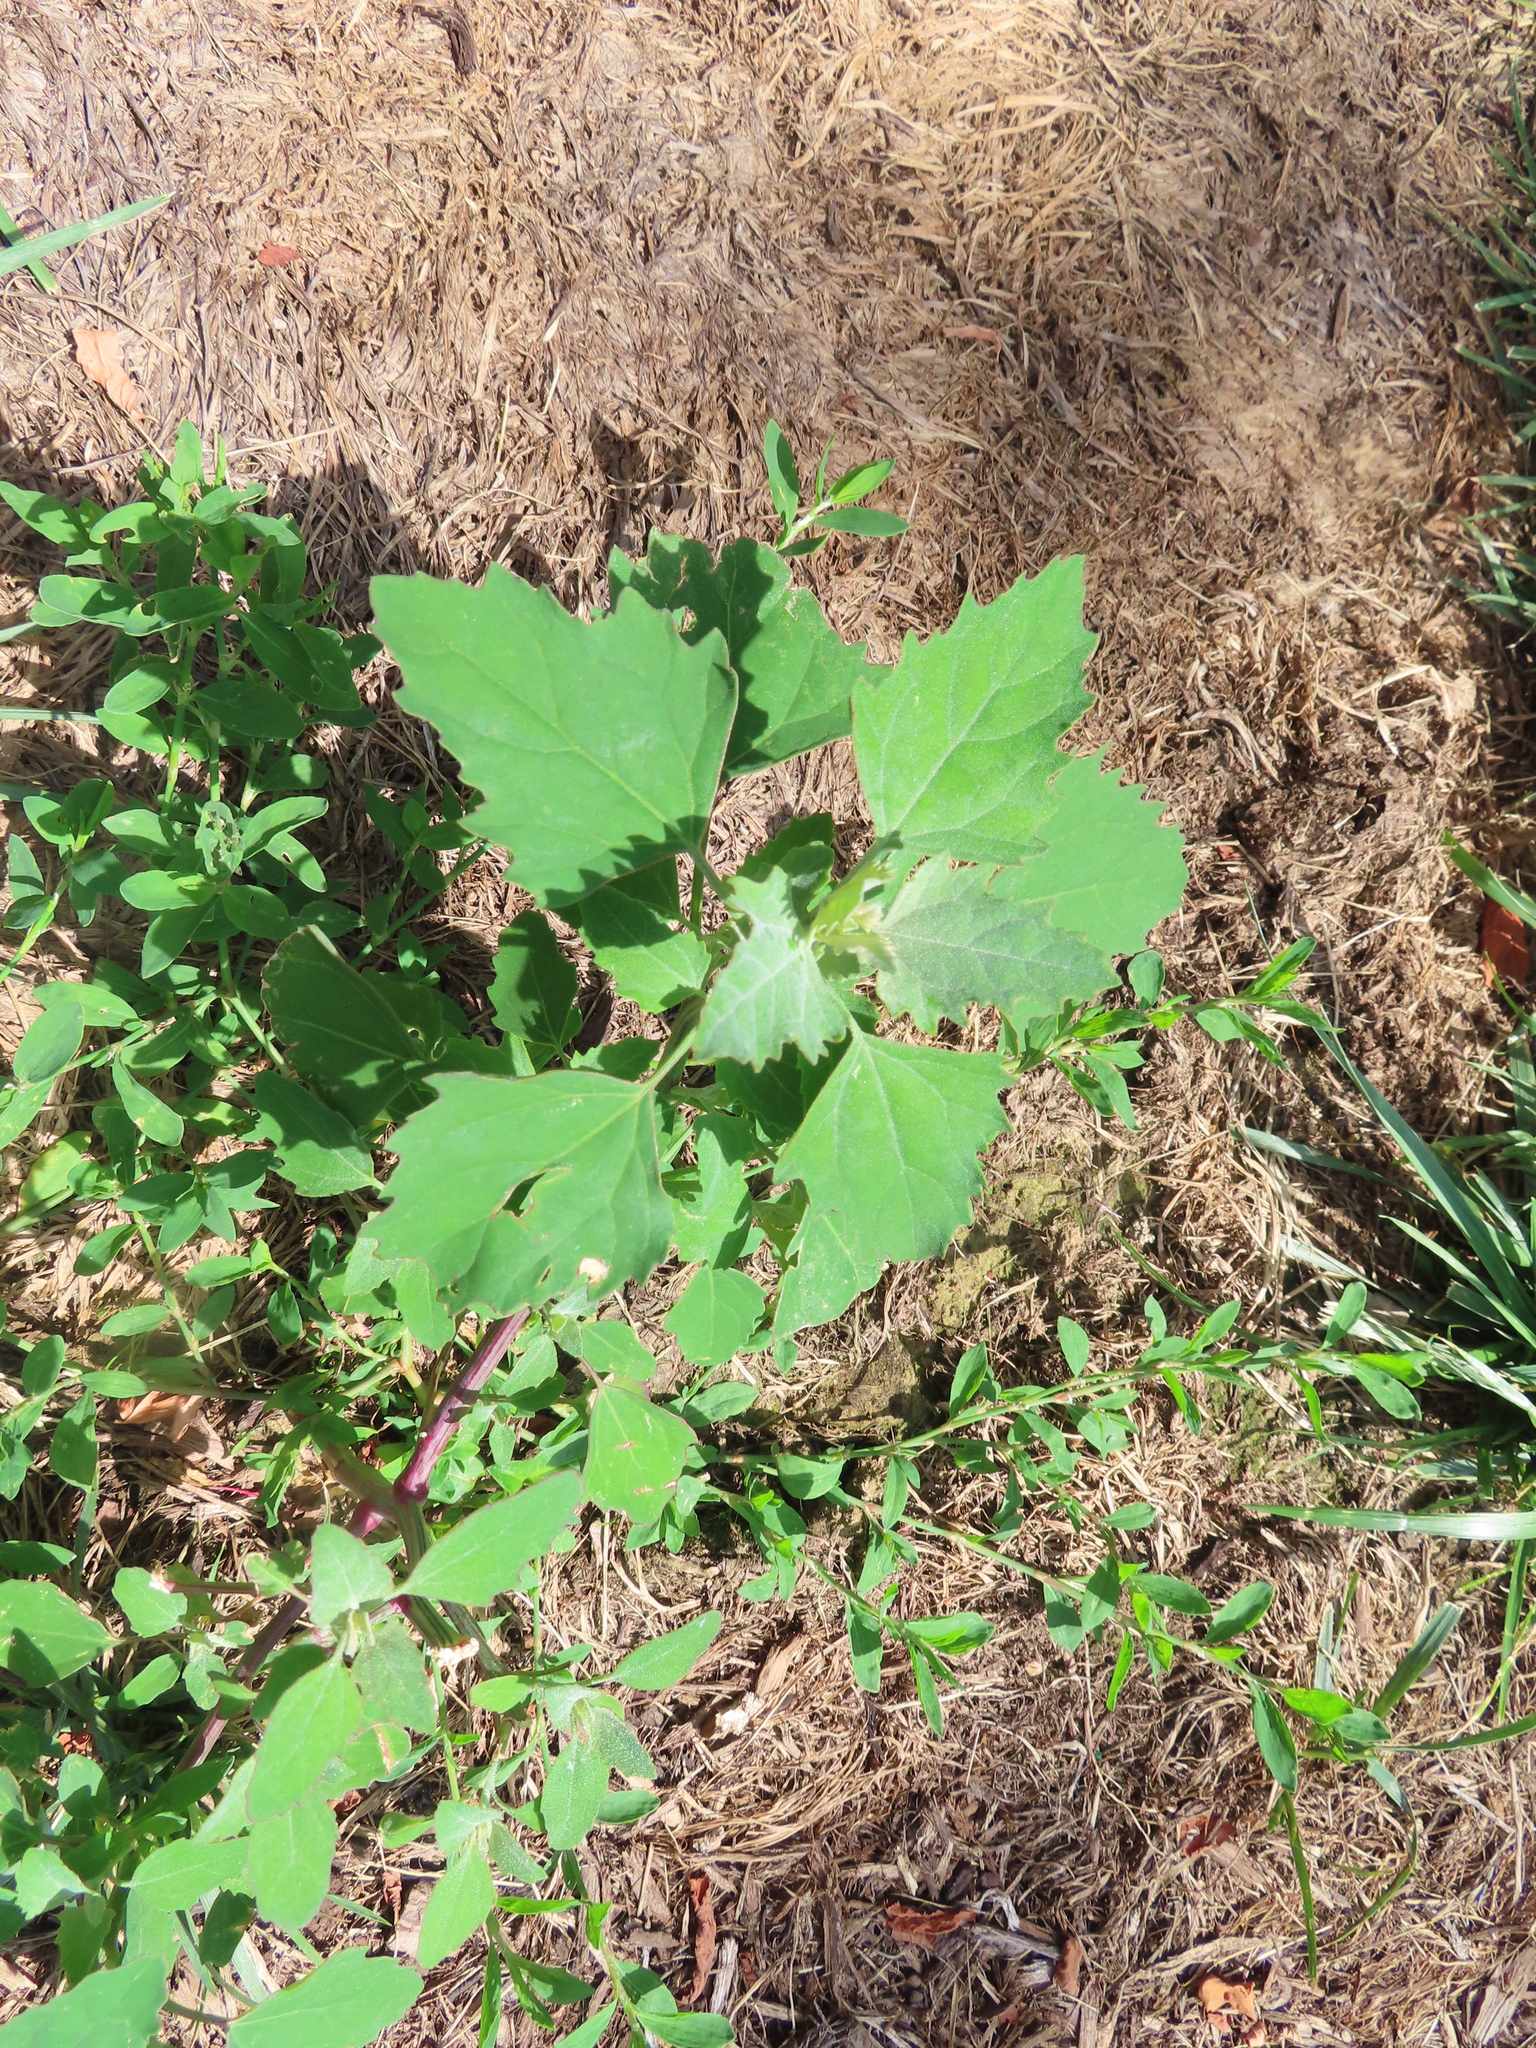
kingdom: Plantae
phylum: Tracheophyta
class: Magnoliopsida
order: Caryophyllales
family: Amaranthaceae
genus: Chenopodium
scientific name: Chenopodium album
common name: Fat-hen
